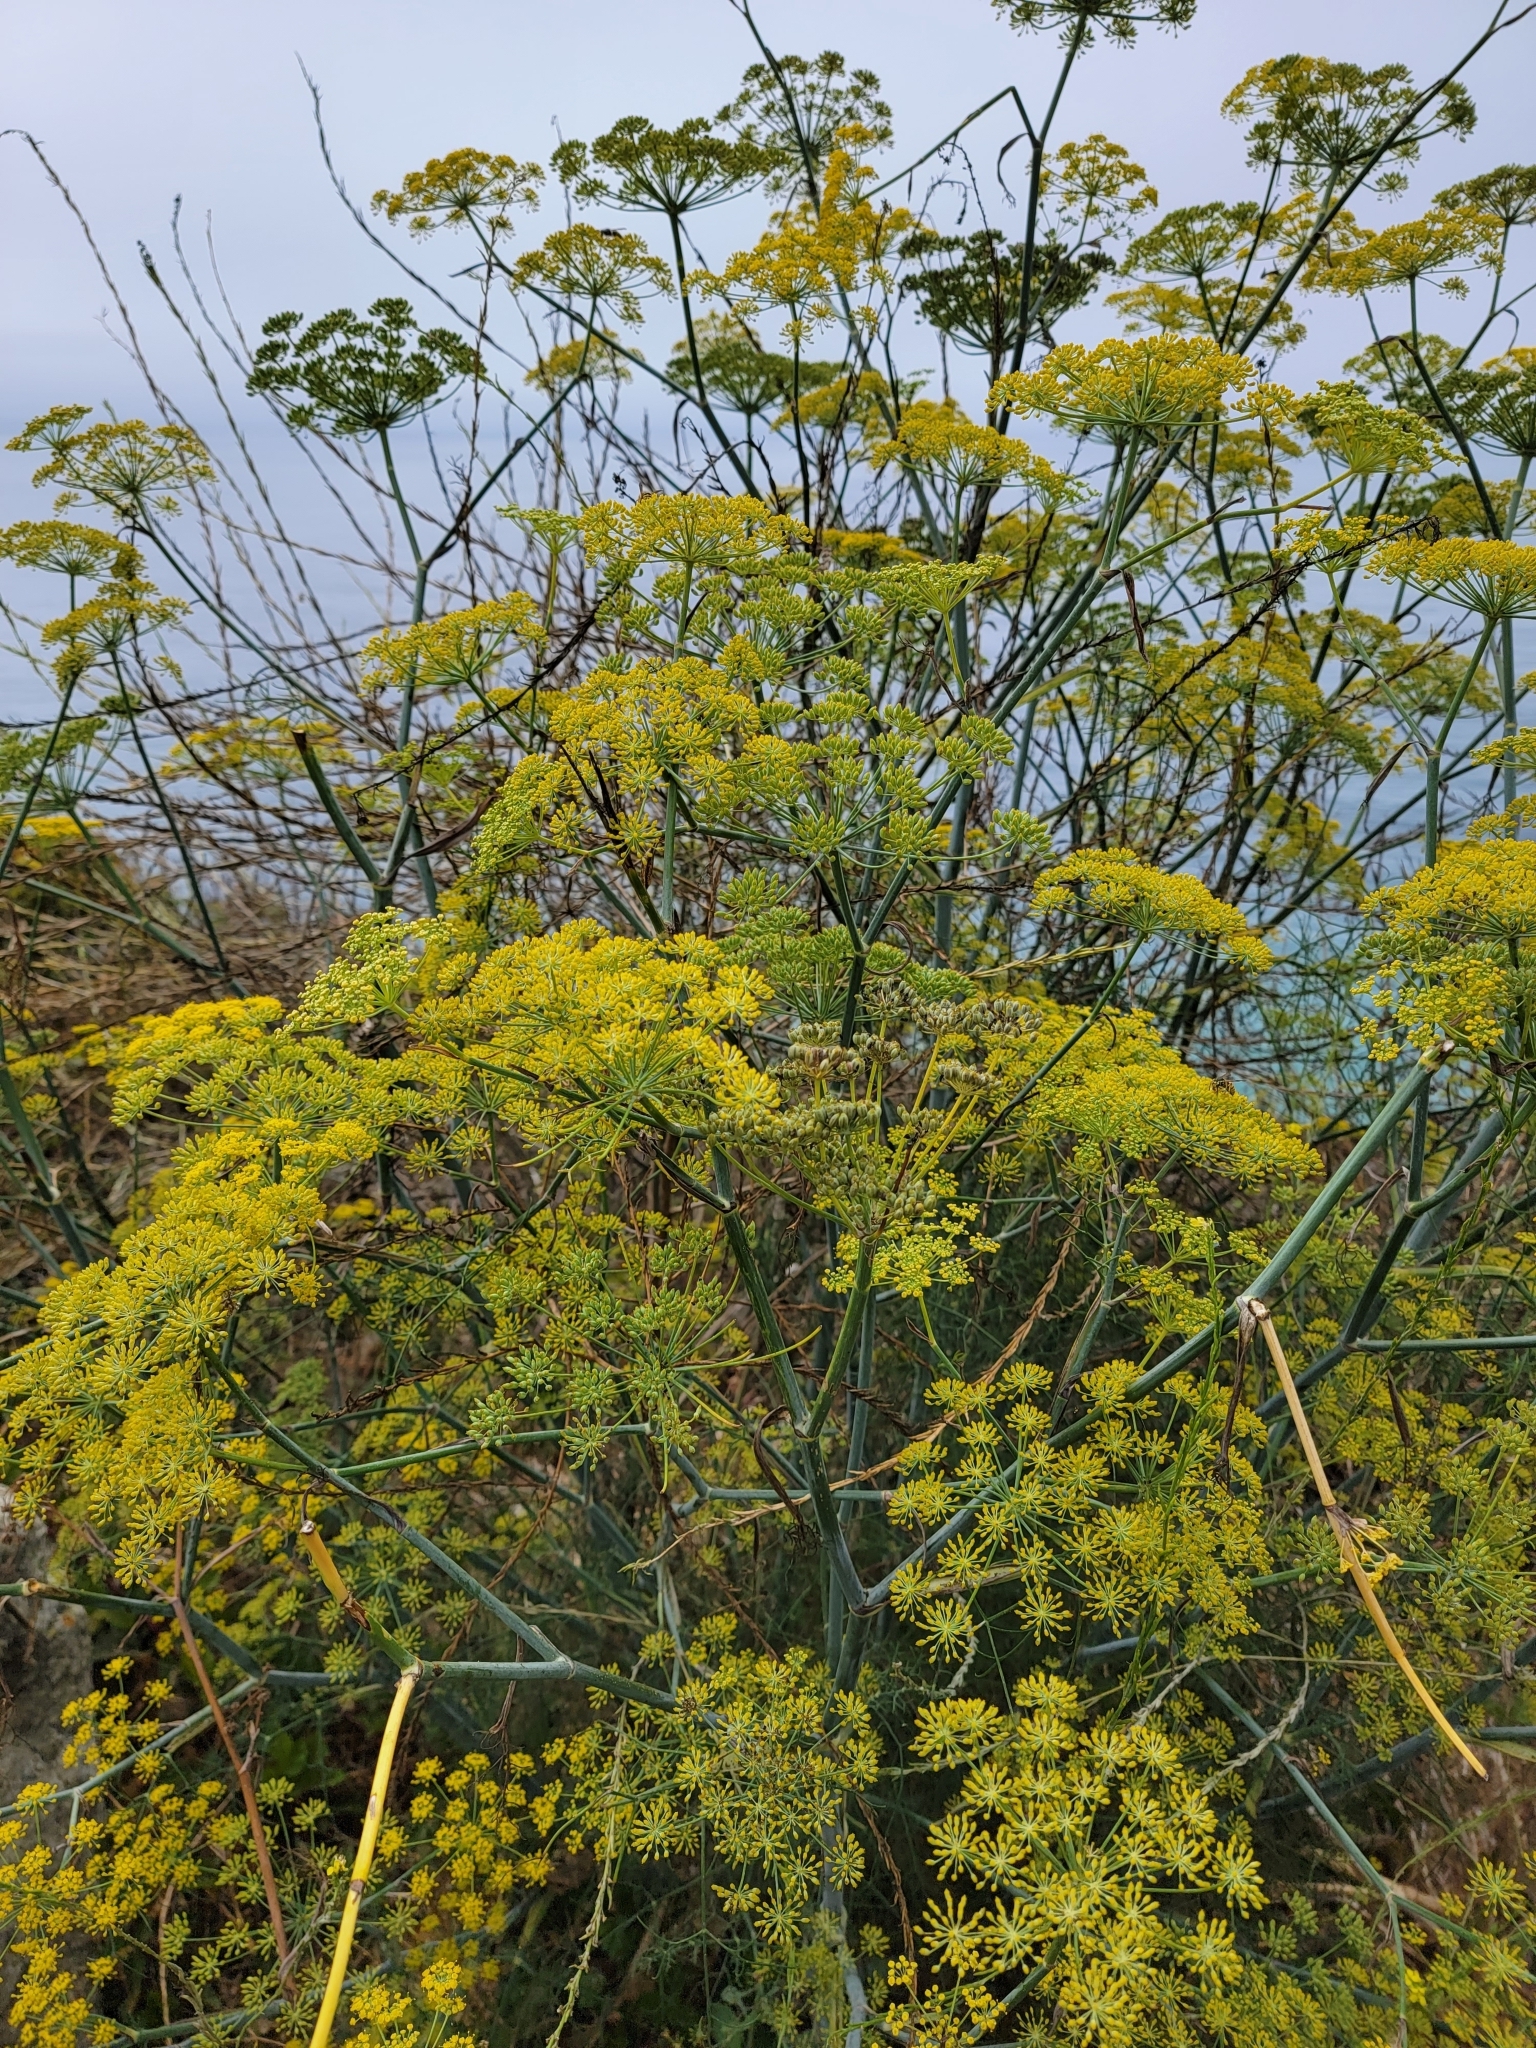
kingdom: Plantae
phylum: Tracheophyta
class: Magnoliopsida
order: Apiales
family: Apiaceae
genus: Foeniculum
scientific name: Foeniculum vulgare
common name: Fennel
